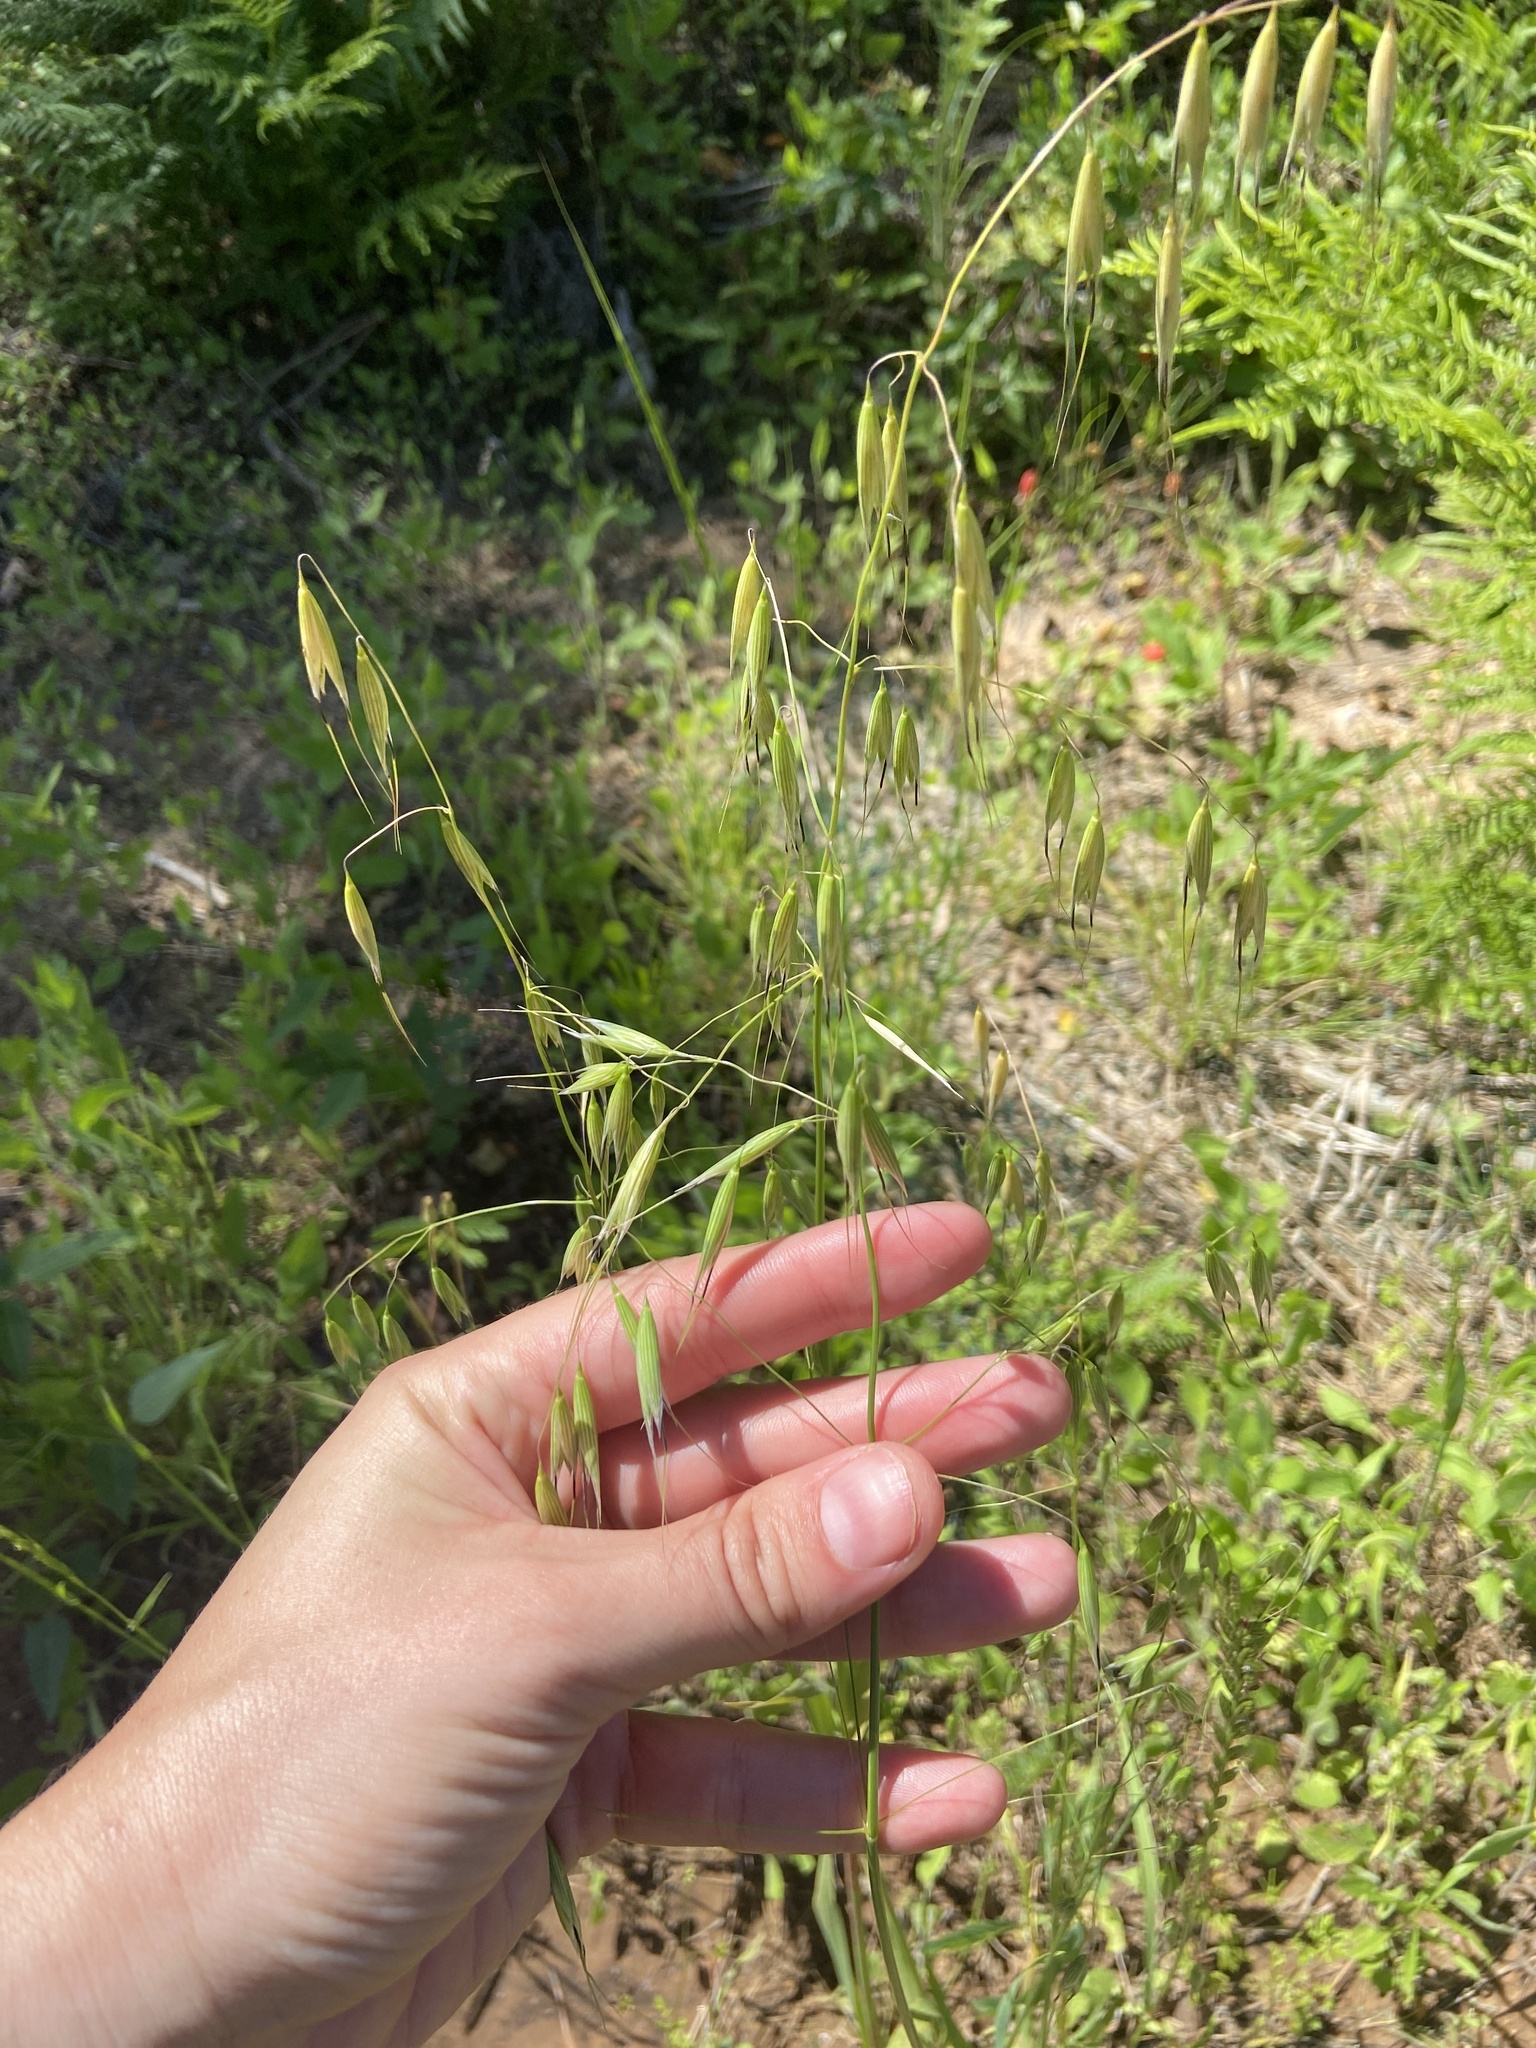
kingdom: Plantae
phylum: Tracheophyta
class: Liliopsida
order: Poales
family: Poaceae
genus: Avena
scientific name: Avena fatua
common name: Wild oat
